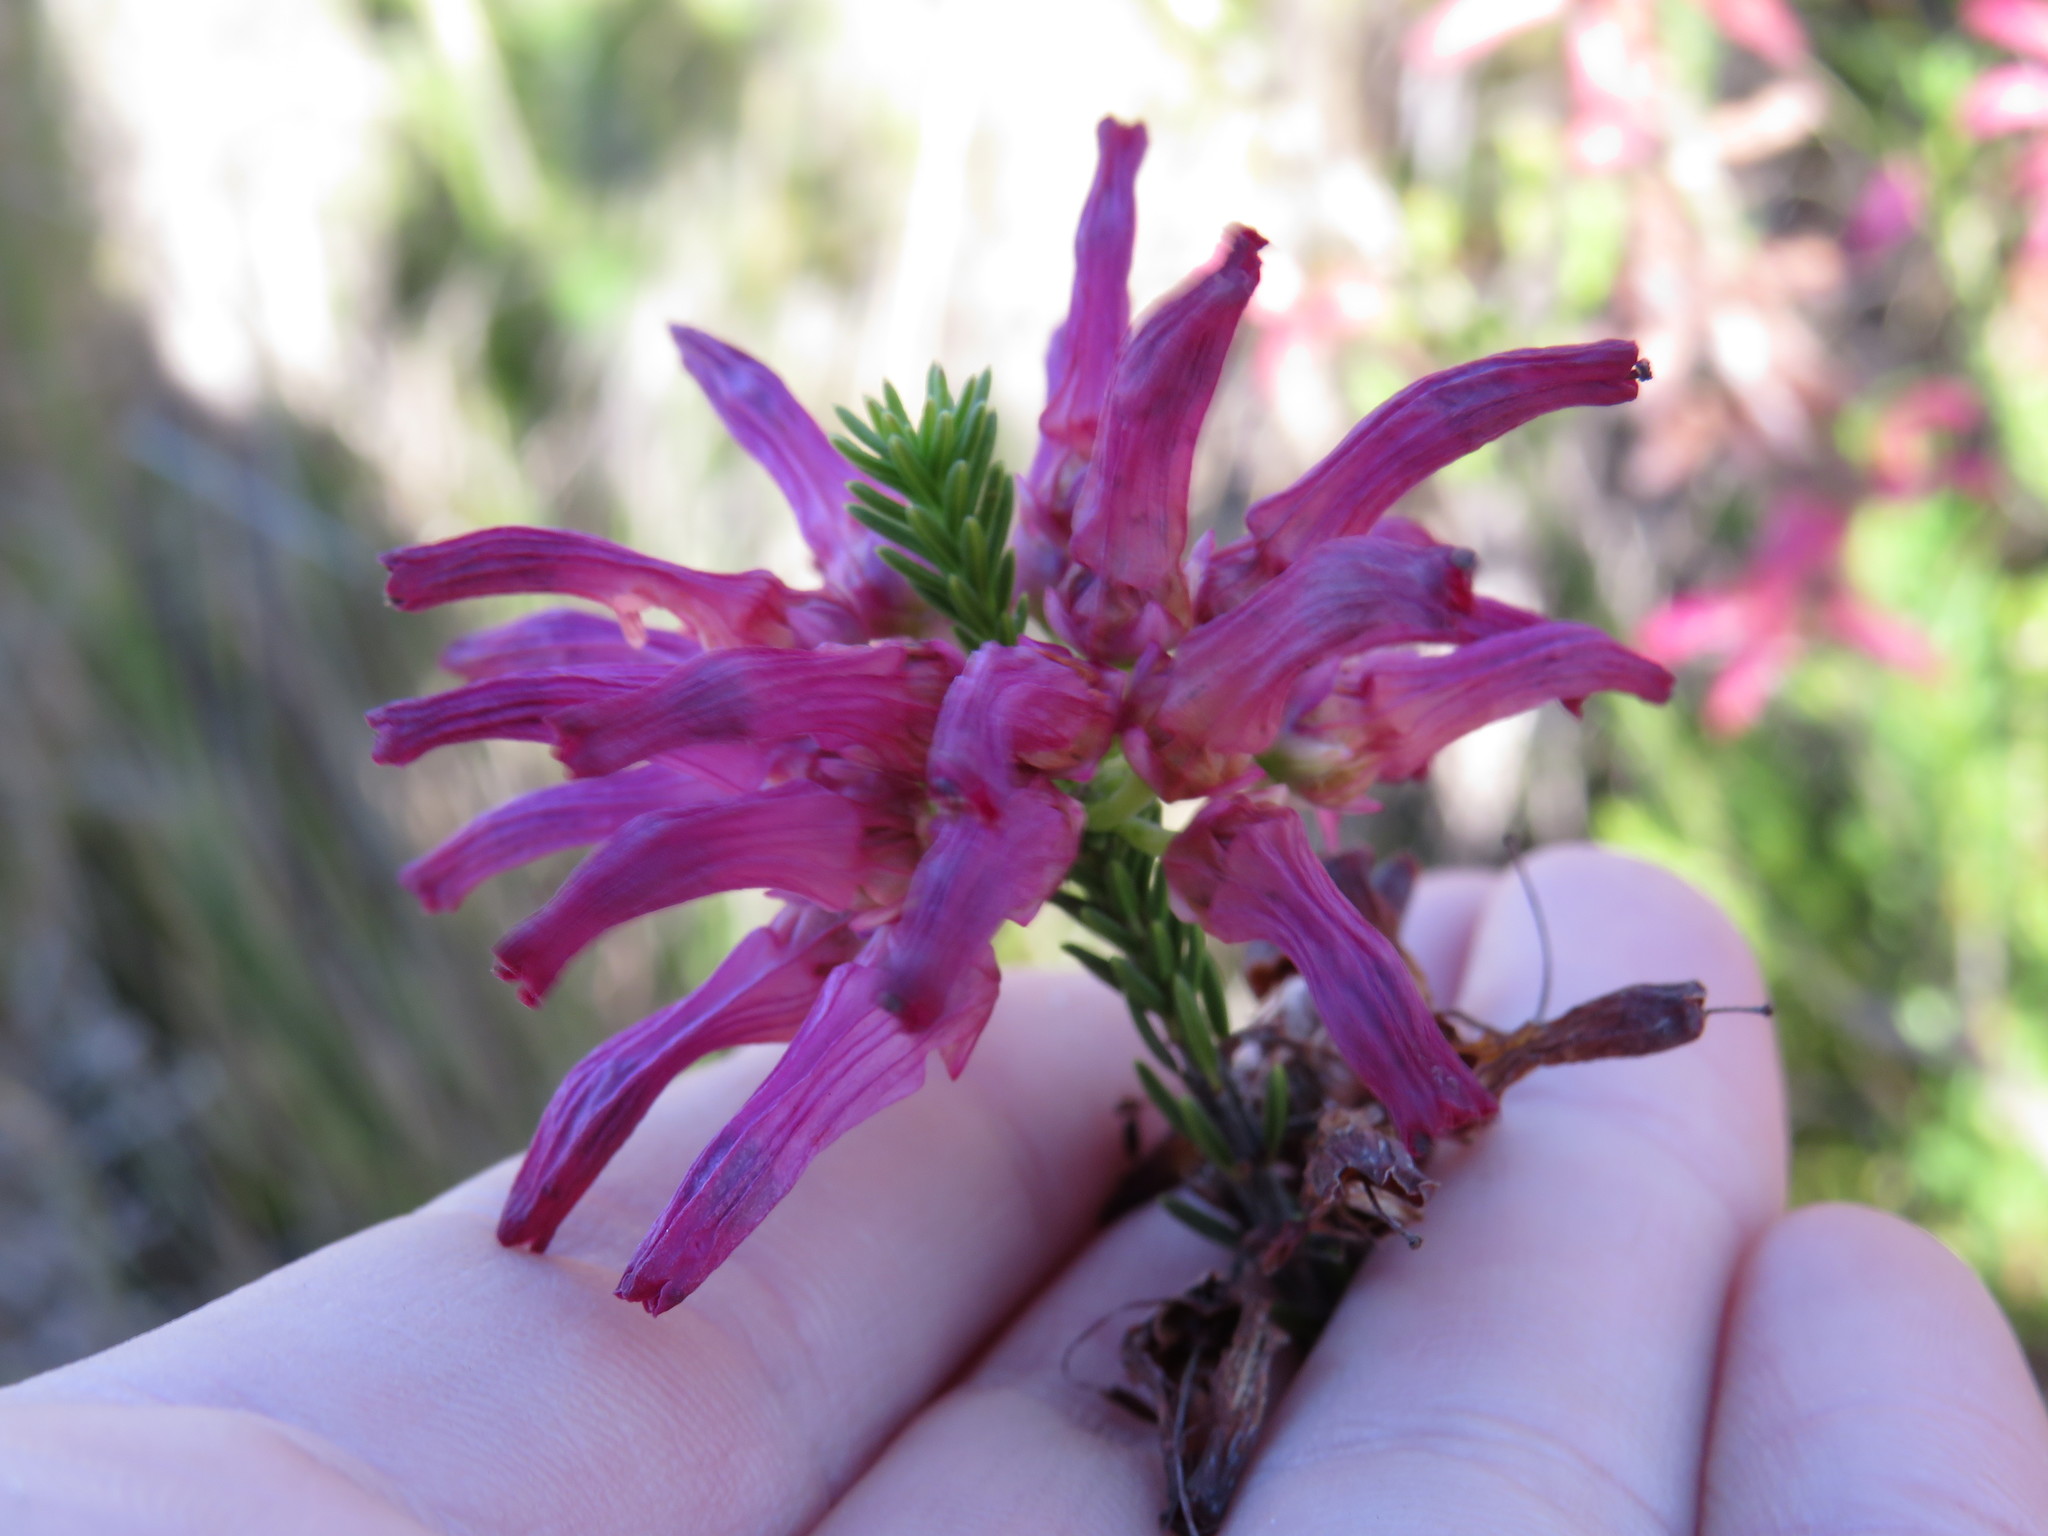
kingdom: Plantae
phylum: Tracheophyta
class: Magnoliopsida
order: Ericales
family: Ericaceae
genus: Erica
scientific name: Erica mammosa
